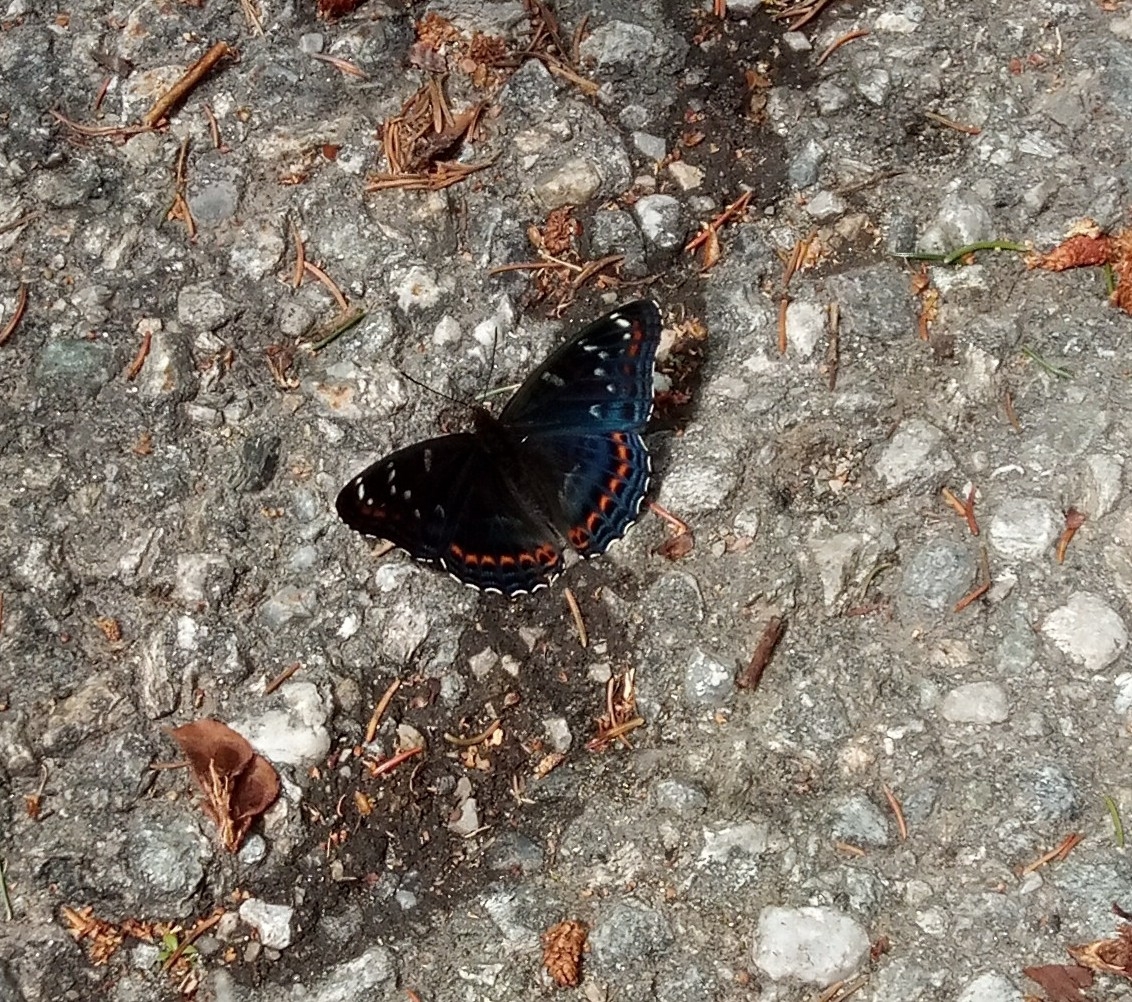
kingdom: Animalia
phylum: Arthropoda
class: Insecta
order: Lepidoptera
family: Nymphalidae
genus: Limenitis
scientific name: Limenitis populi
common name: Poplar admiral
